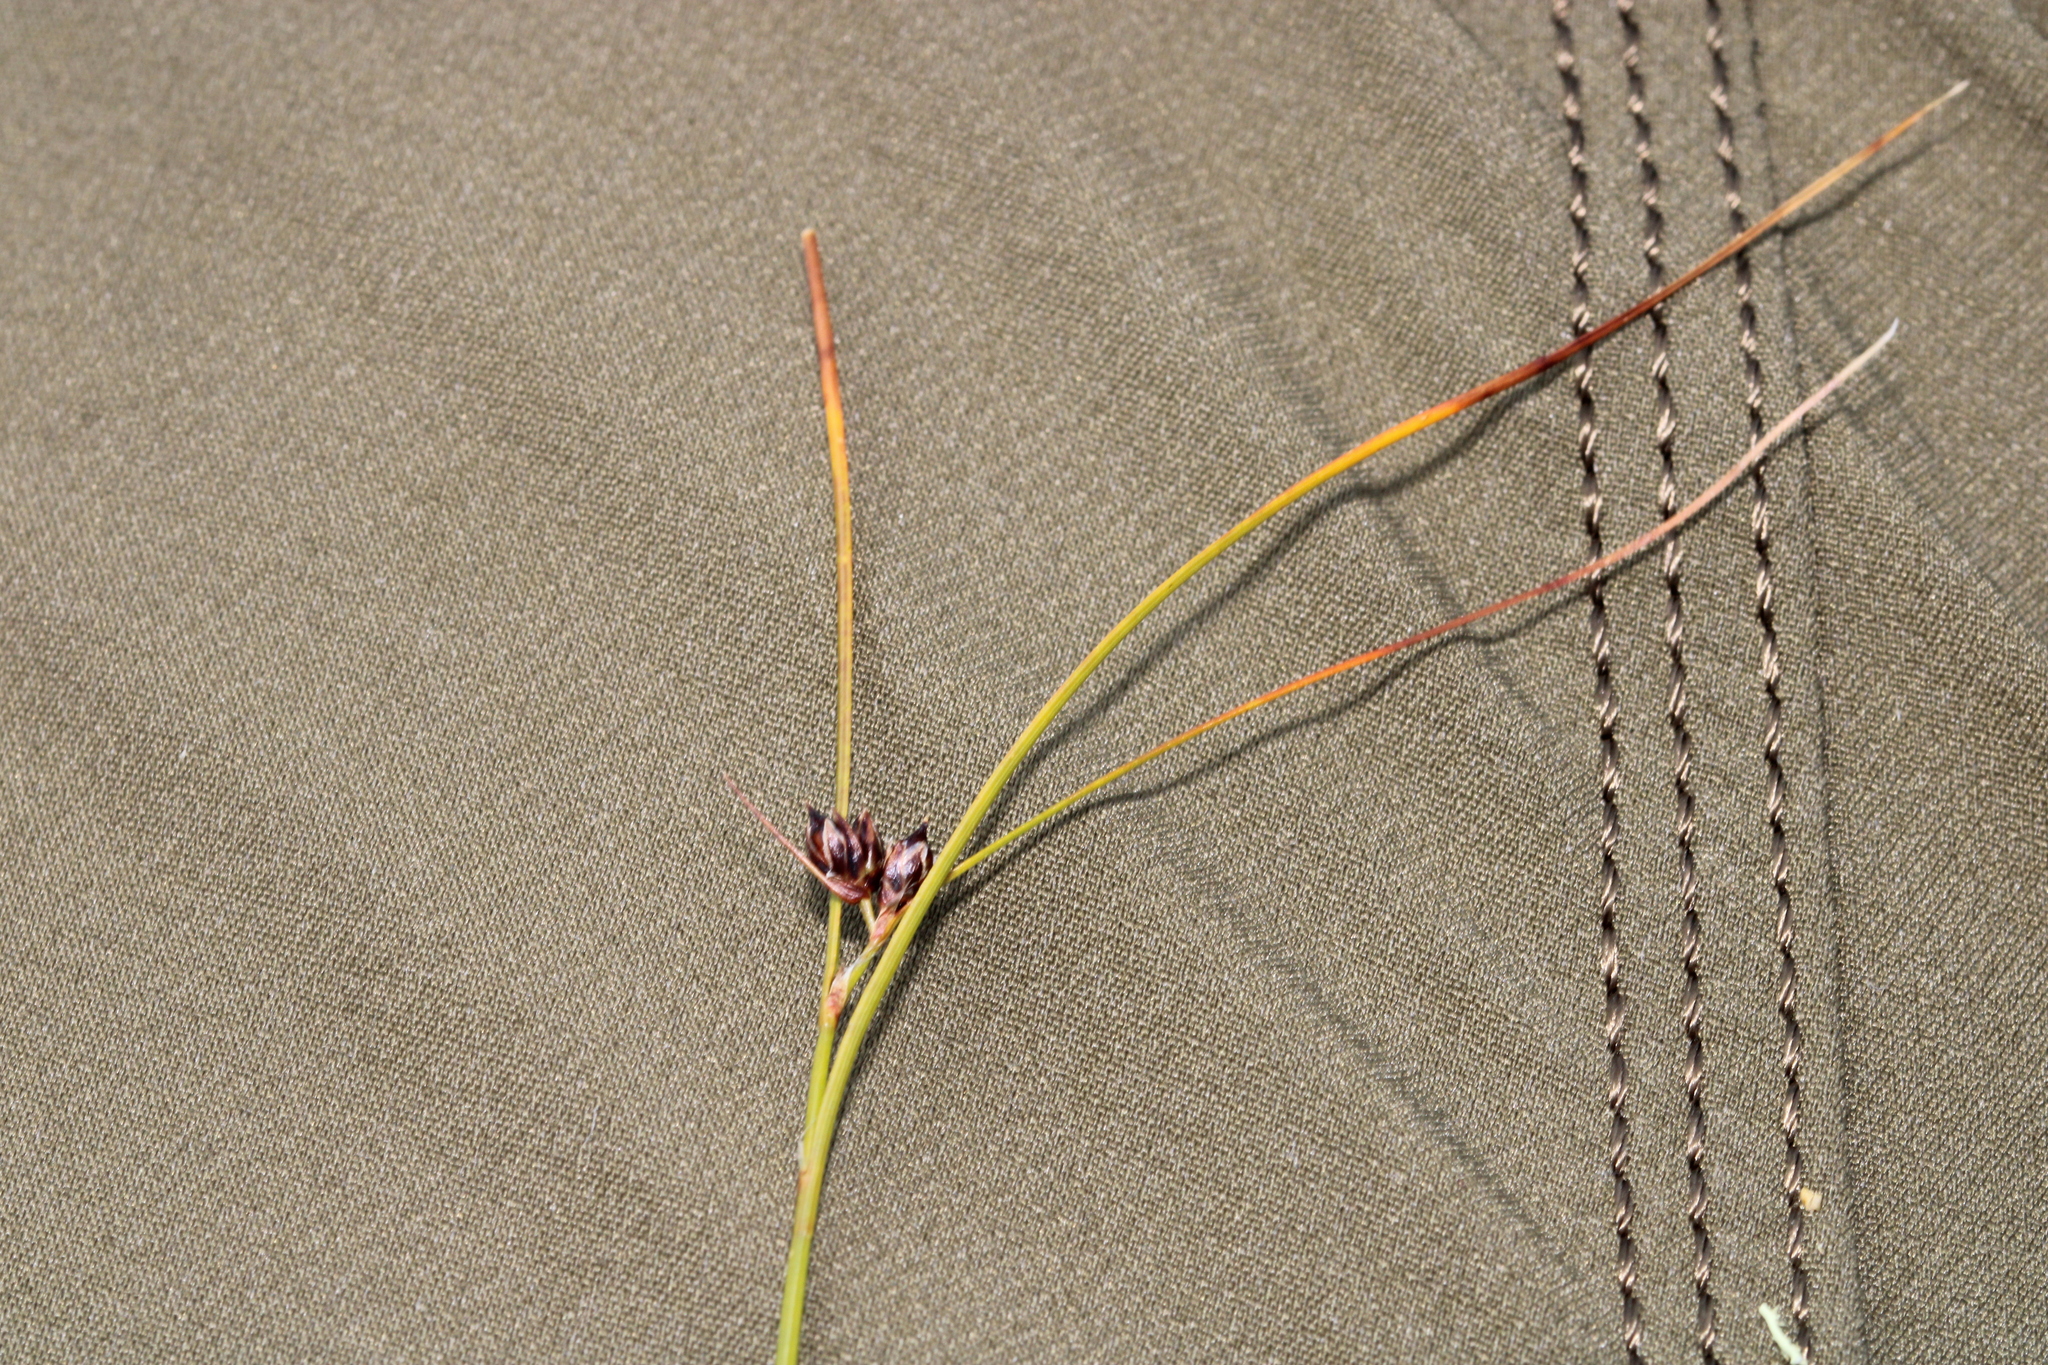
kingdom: Plantae
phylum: Tracheophyta
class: Liliopsida
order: Poales
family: Juncaceae
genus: Oreojuncus
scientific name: Oreojuncus trifidus
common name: Highland rush
